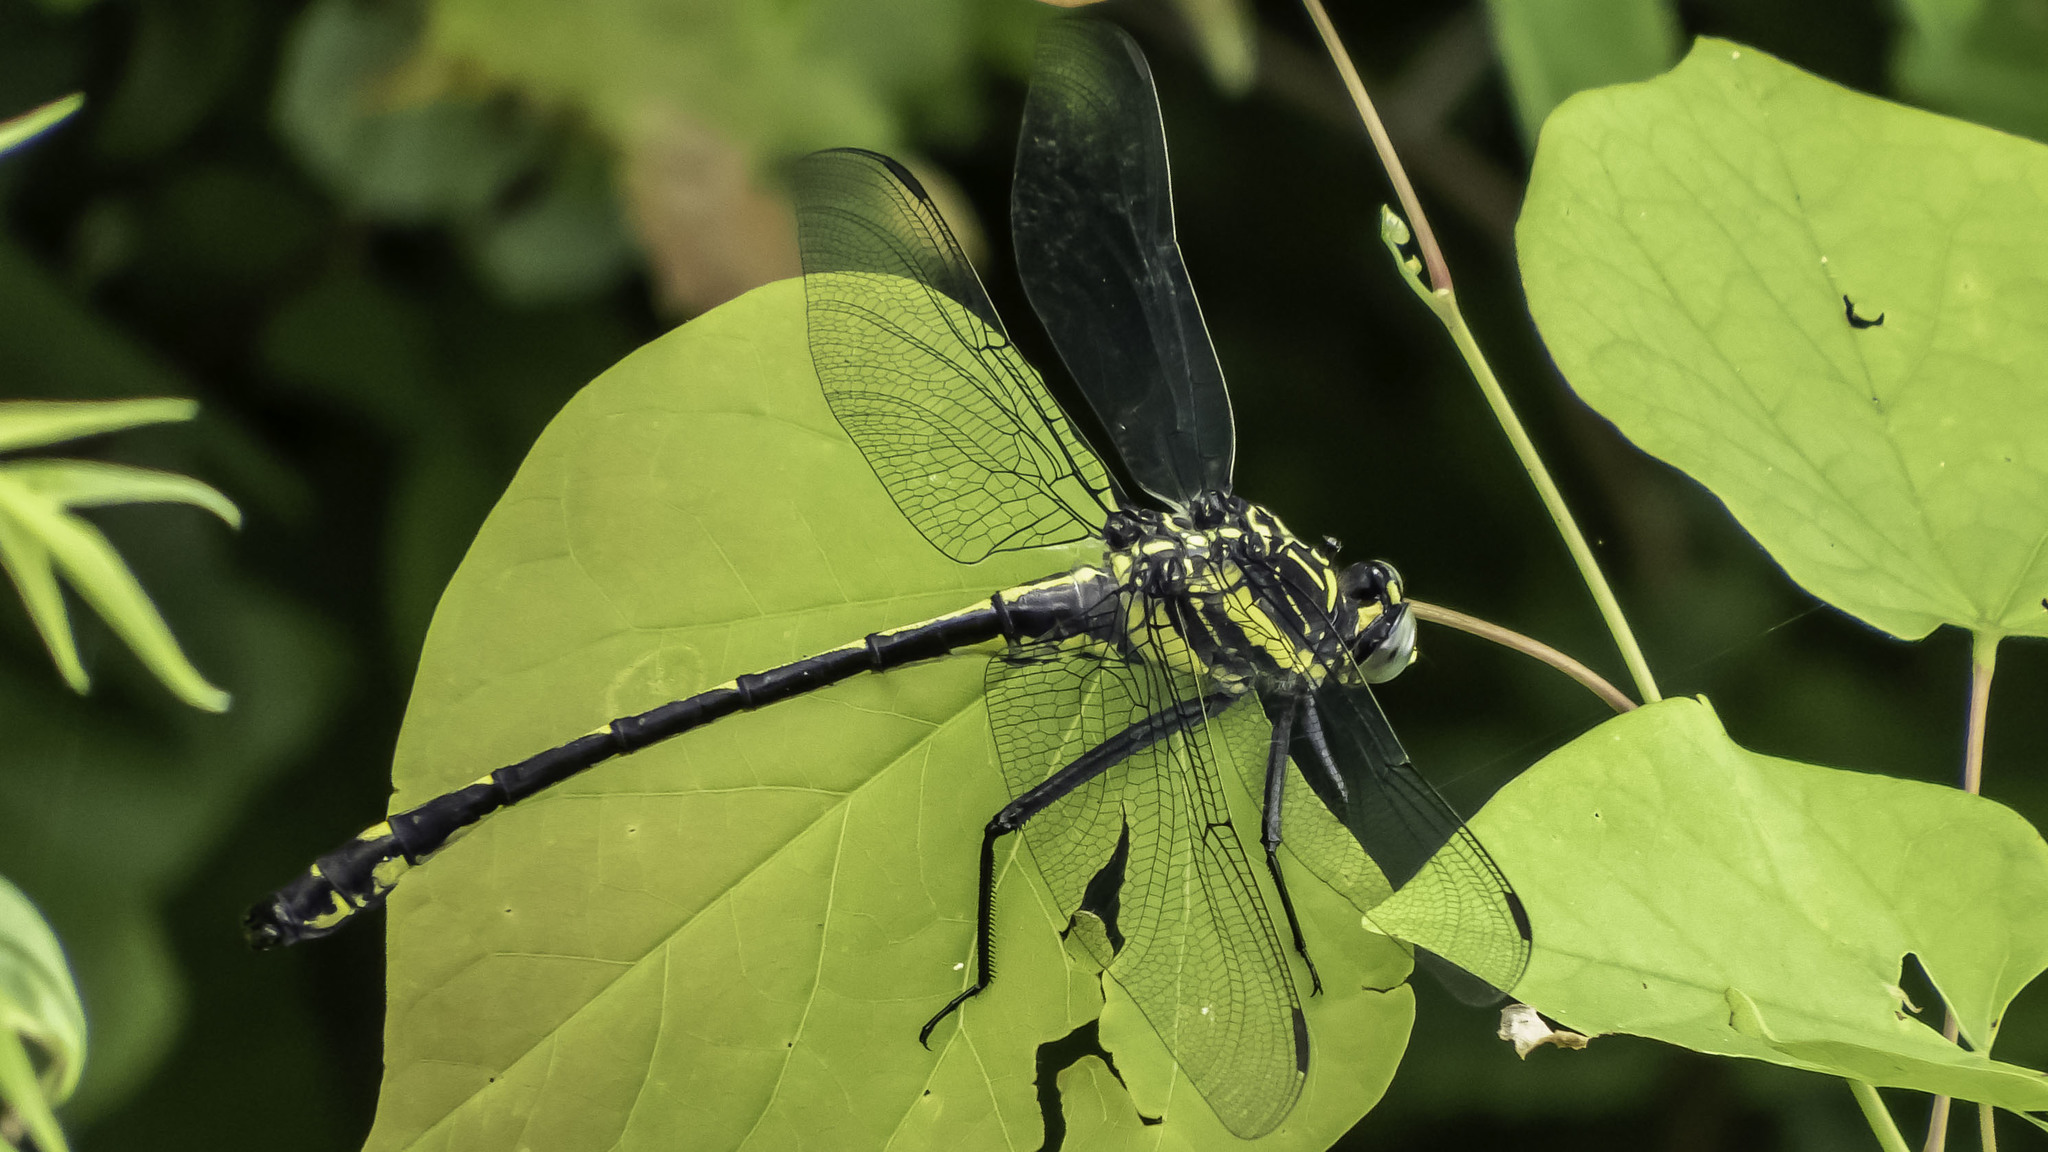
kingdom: Animalia
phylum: Arthropoda
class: Insecta
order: Odonata
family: Gomphidae
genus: Hagenius
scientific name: Hagenius brevistylus
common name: Dragonhunter
